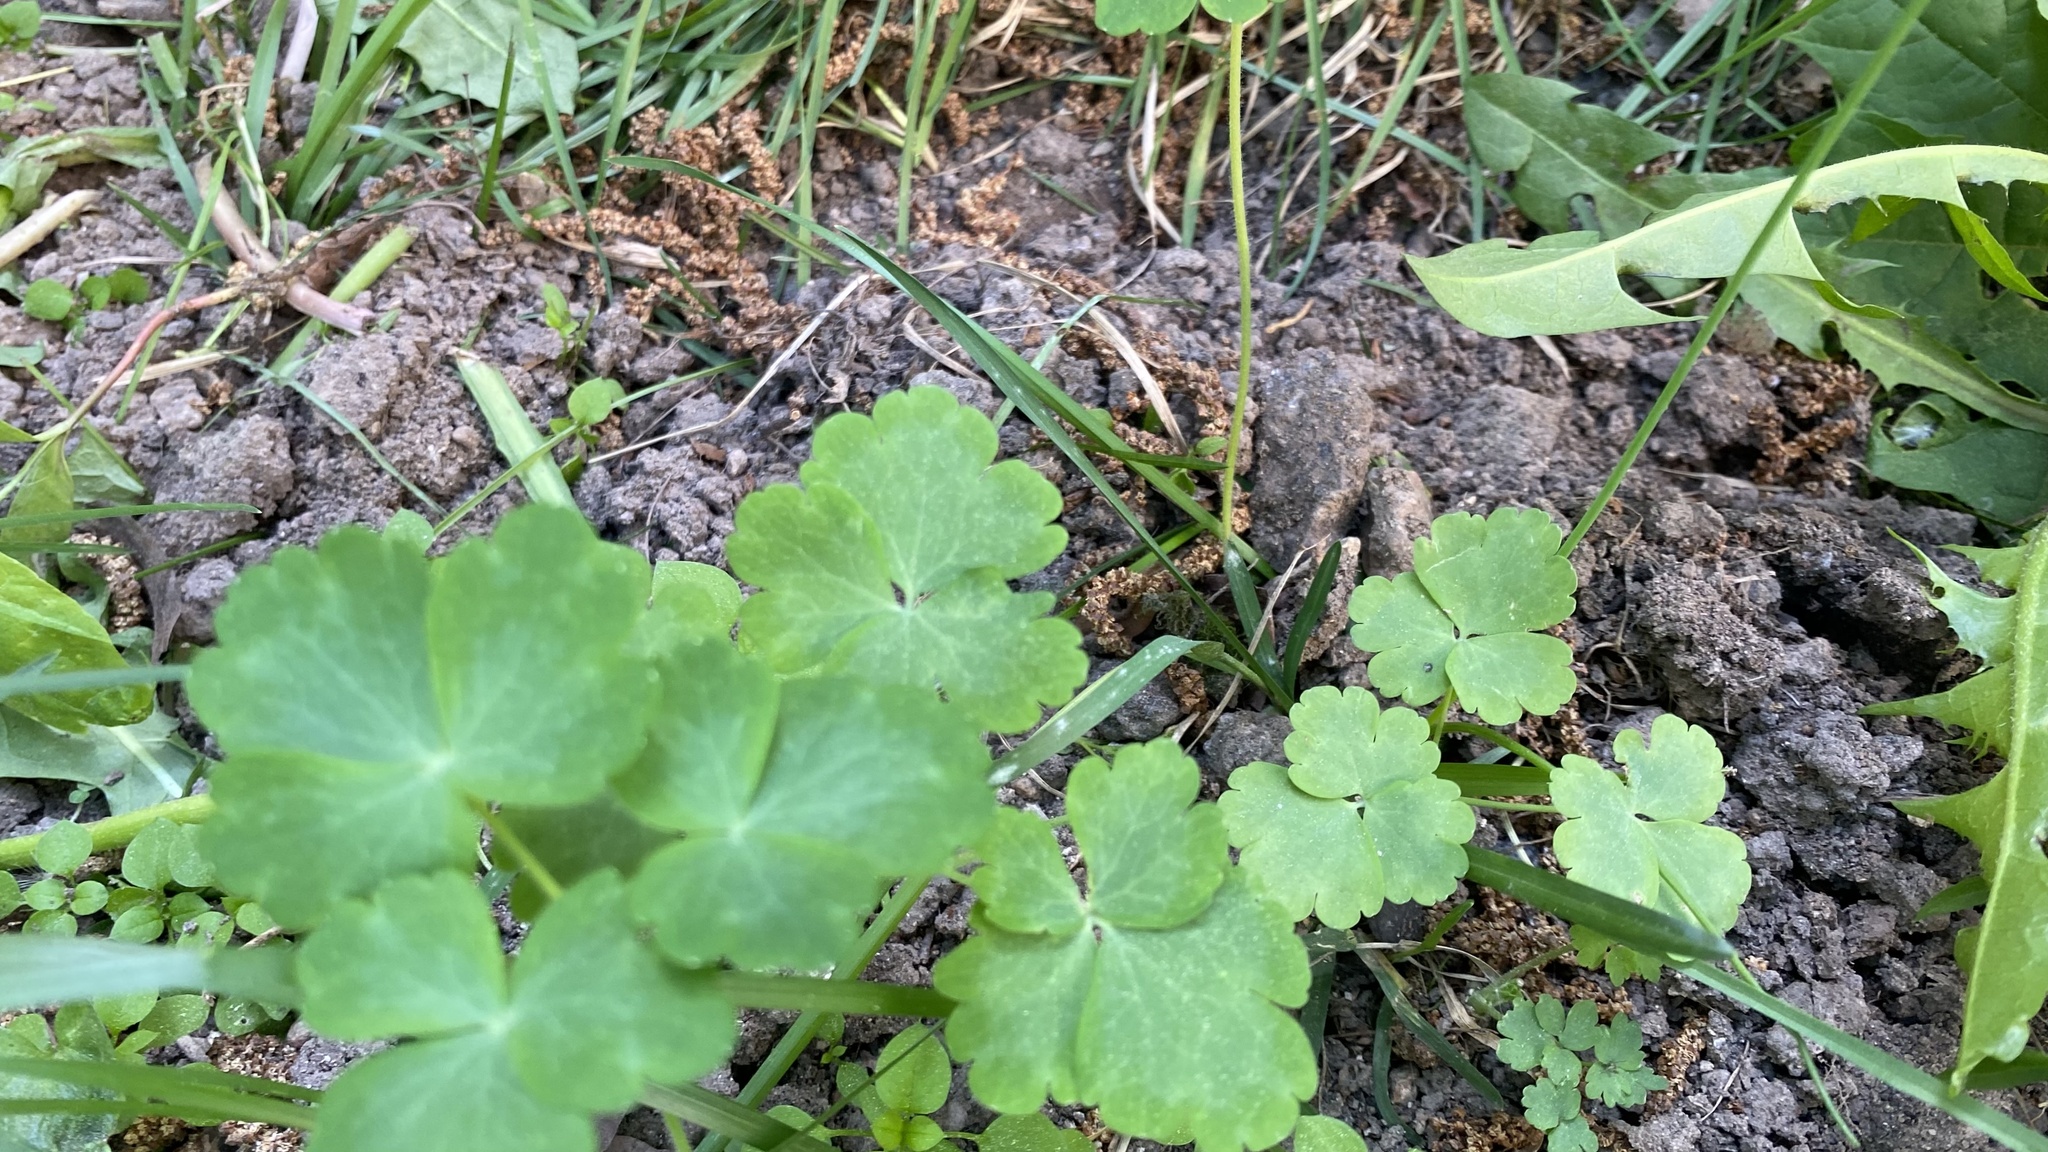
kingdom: Plantae
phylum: Tracheophyta
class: Magnoliopsida
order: Ranunculales
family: Ranunculaceae
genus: Aquilegia
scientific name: Aquilegia vulgaris
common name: Columbine
